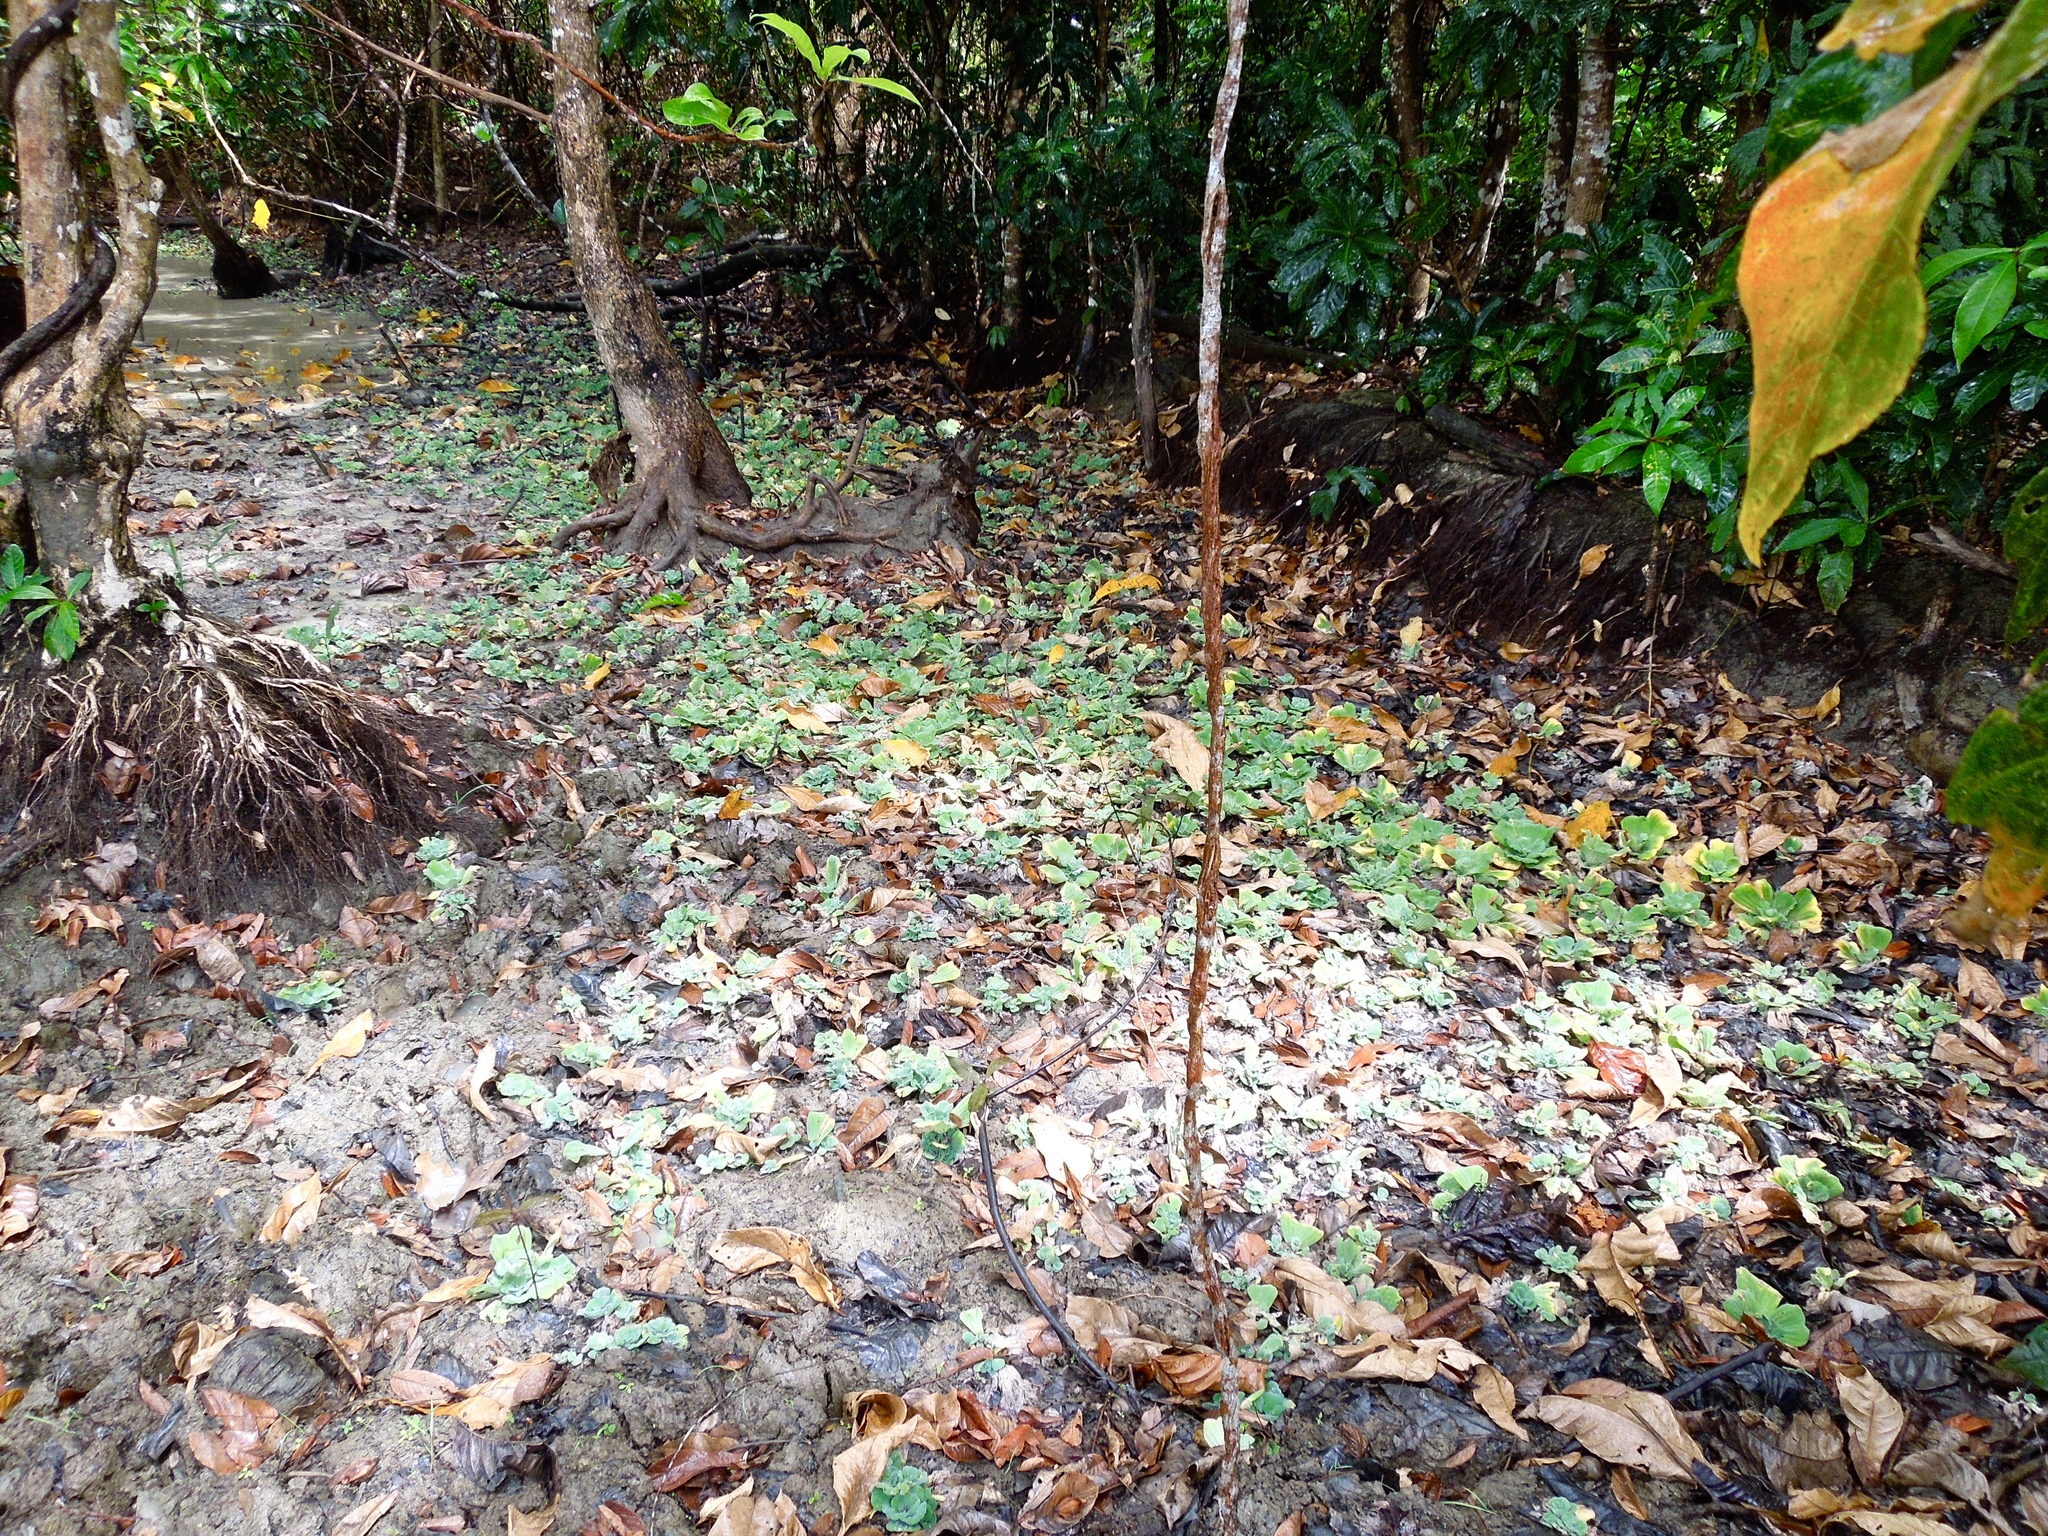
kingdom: Plantae
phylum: Tracheophyta
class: Liliopsida
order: Alismatales
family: Araceae
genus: Pistia
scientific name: Pistia stratiotes
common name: Water lettuce
